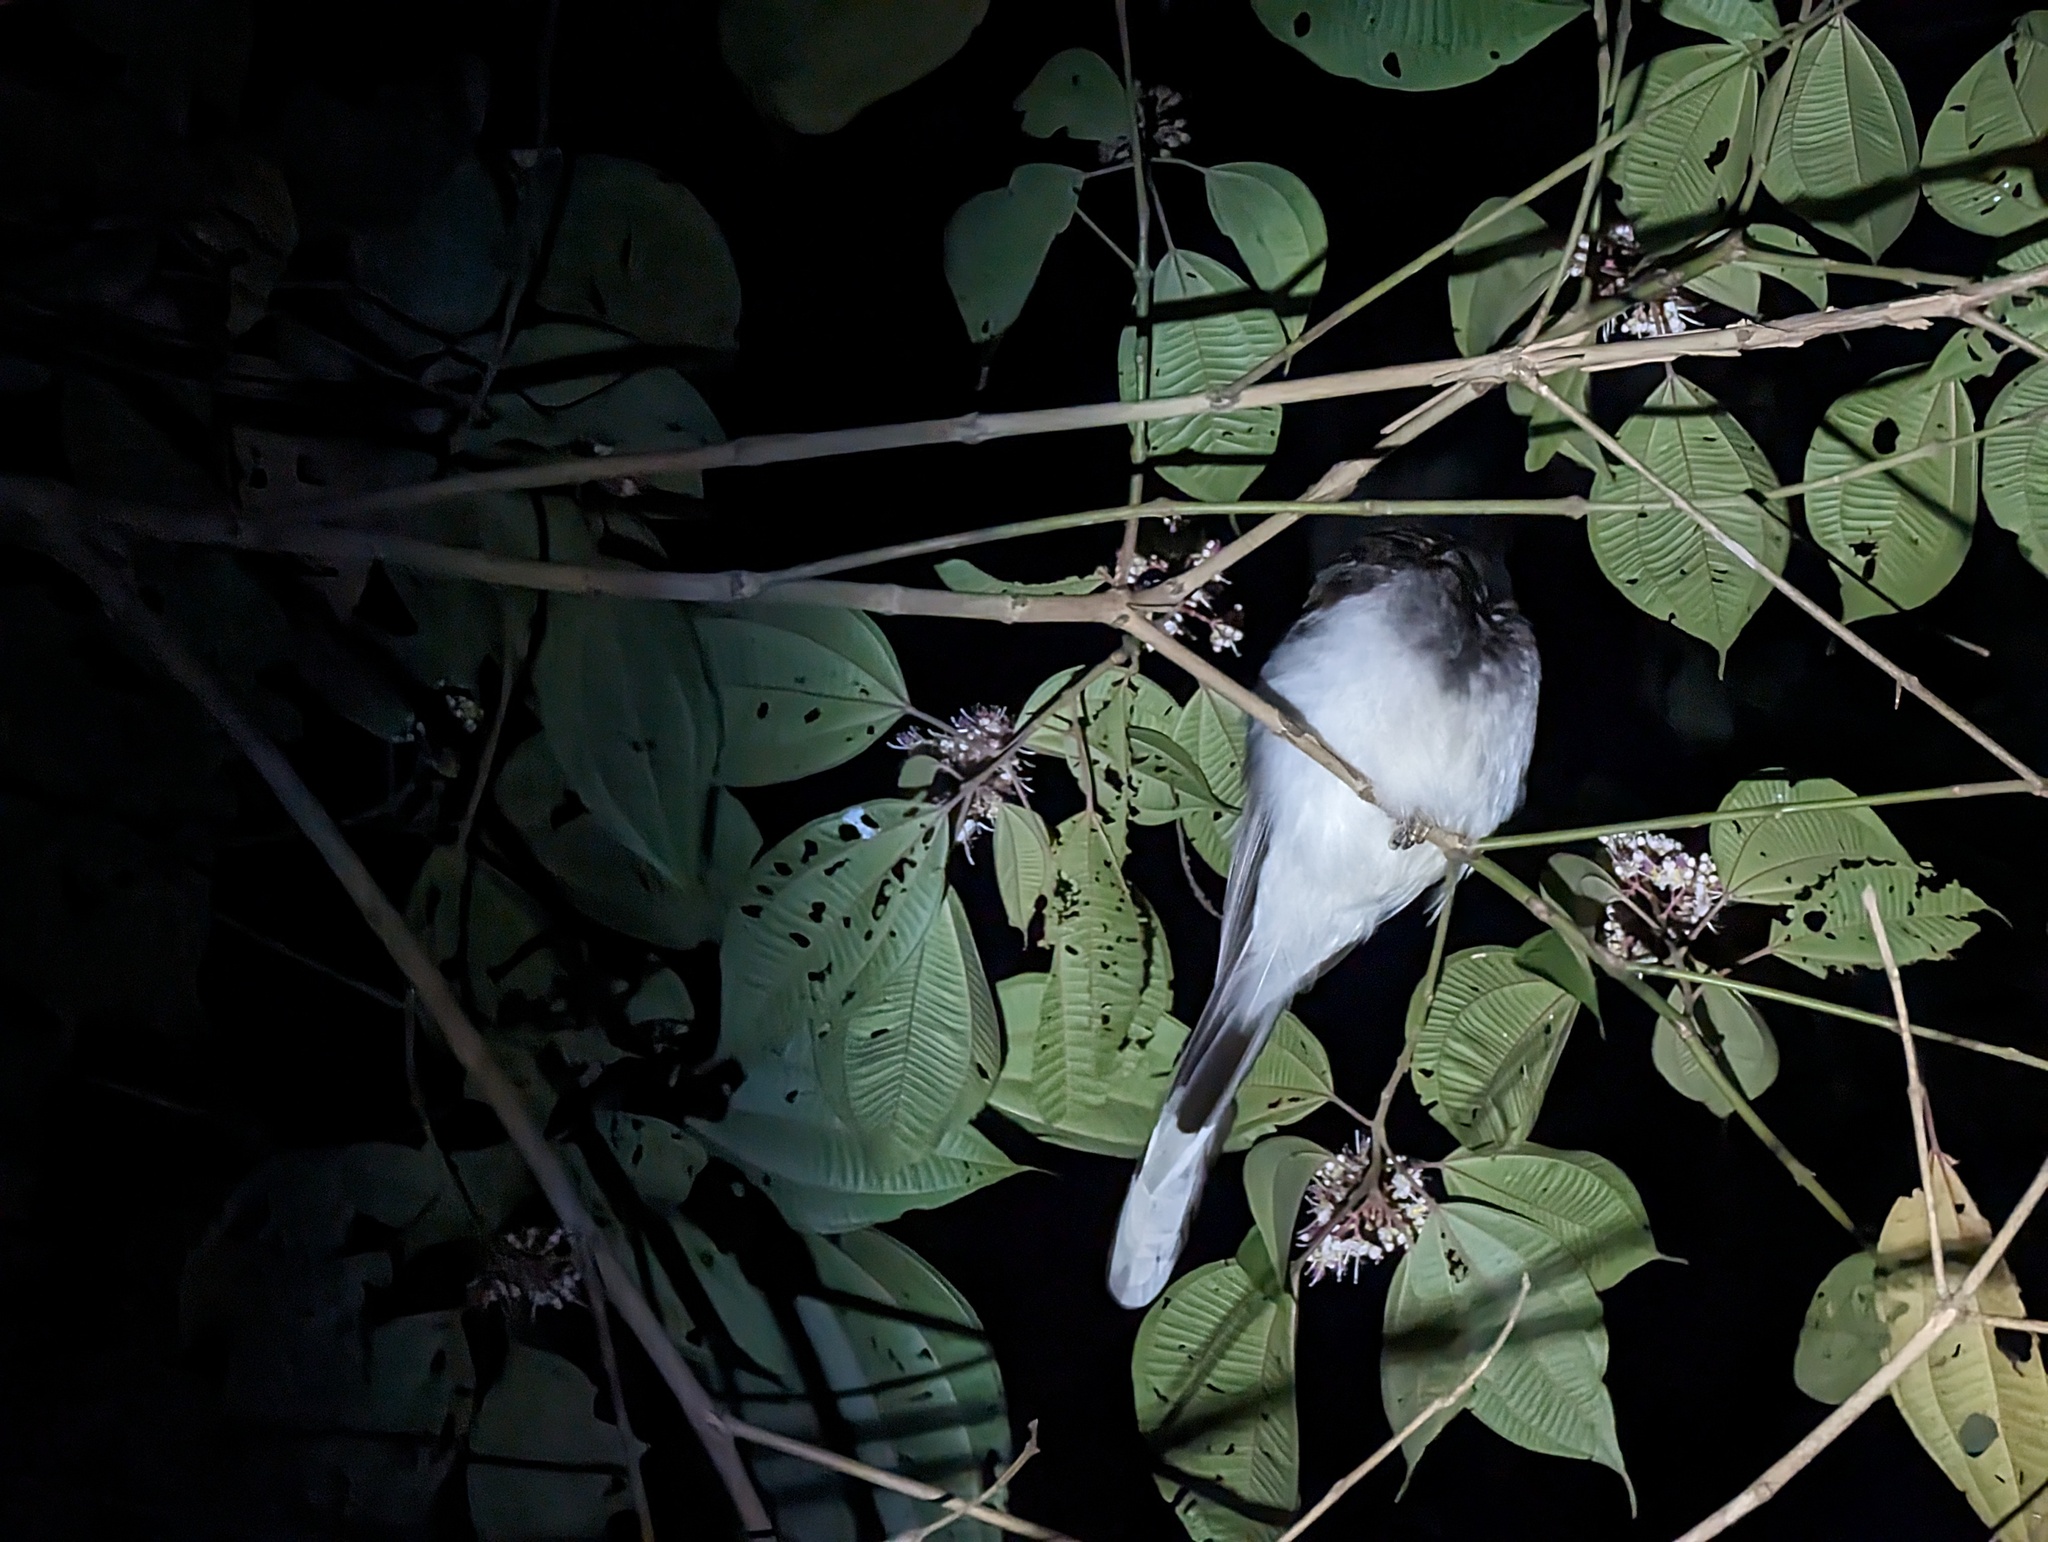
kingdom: Animalia
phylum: Chordata
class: Aves
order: Passeriformes
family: Corvidae
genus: Psilorhinus
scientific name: Psilorhinus morio
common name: Brown jay
